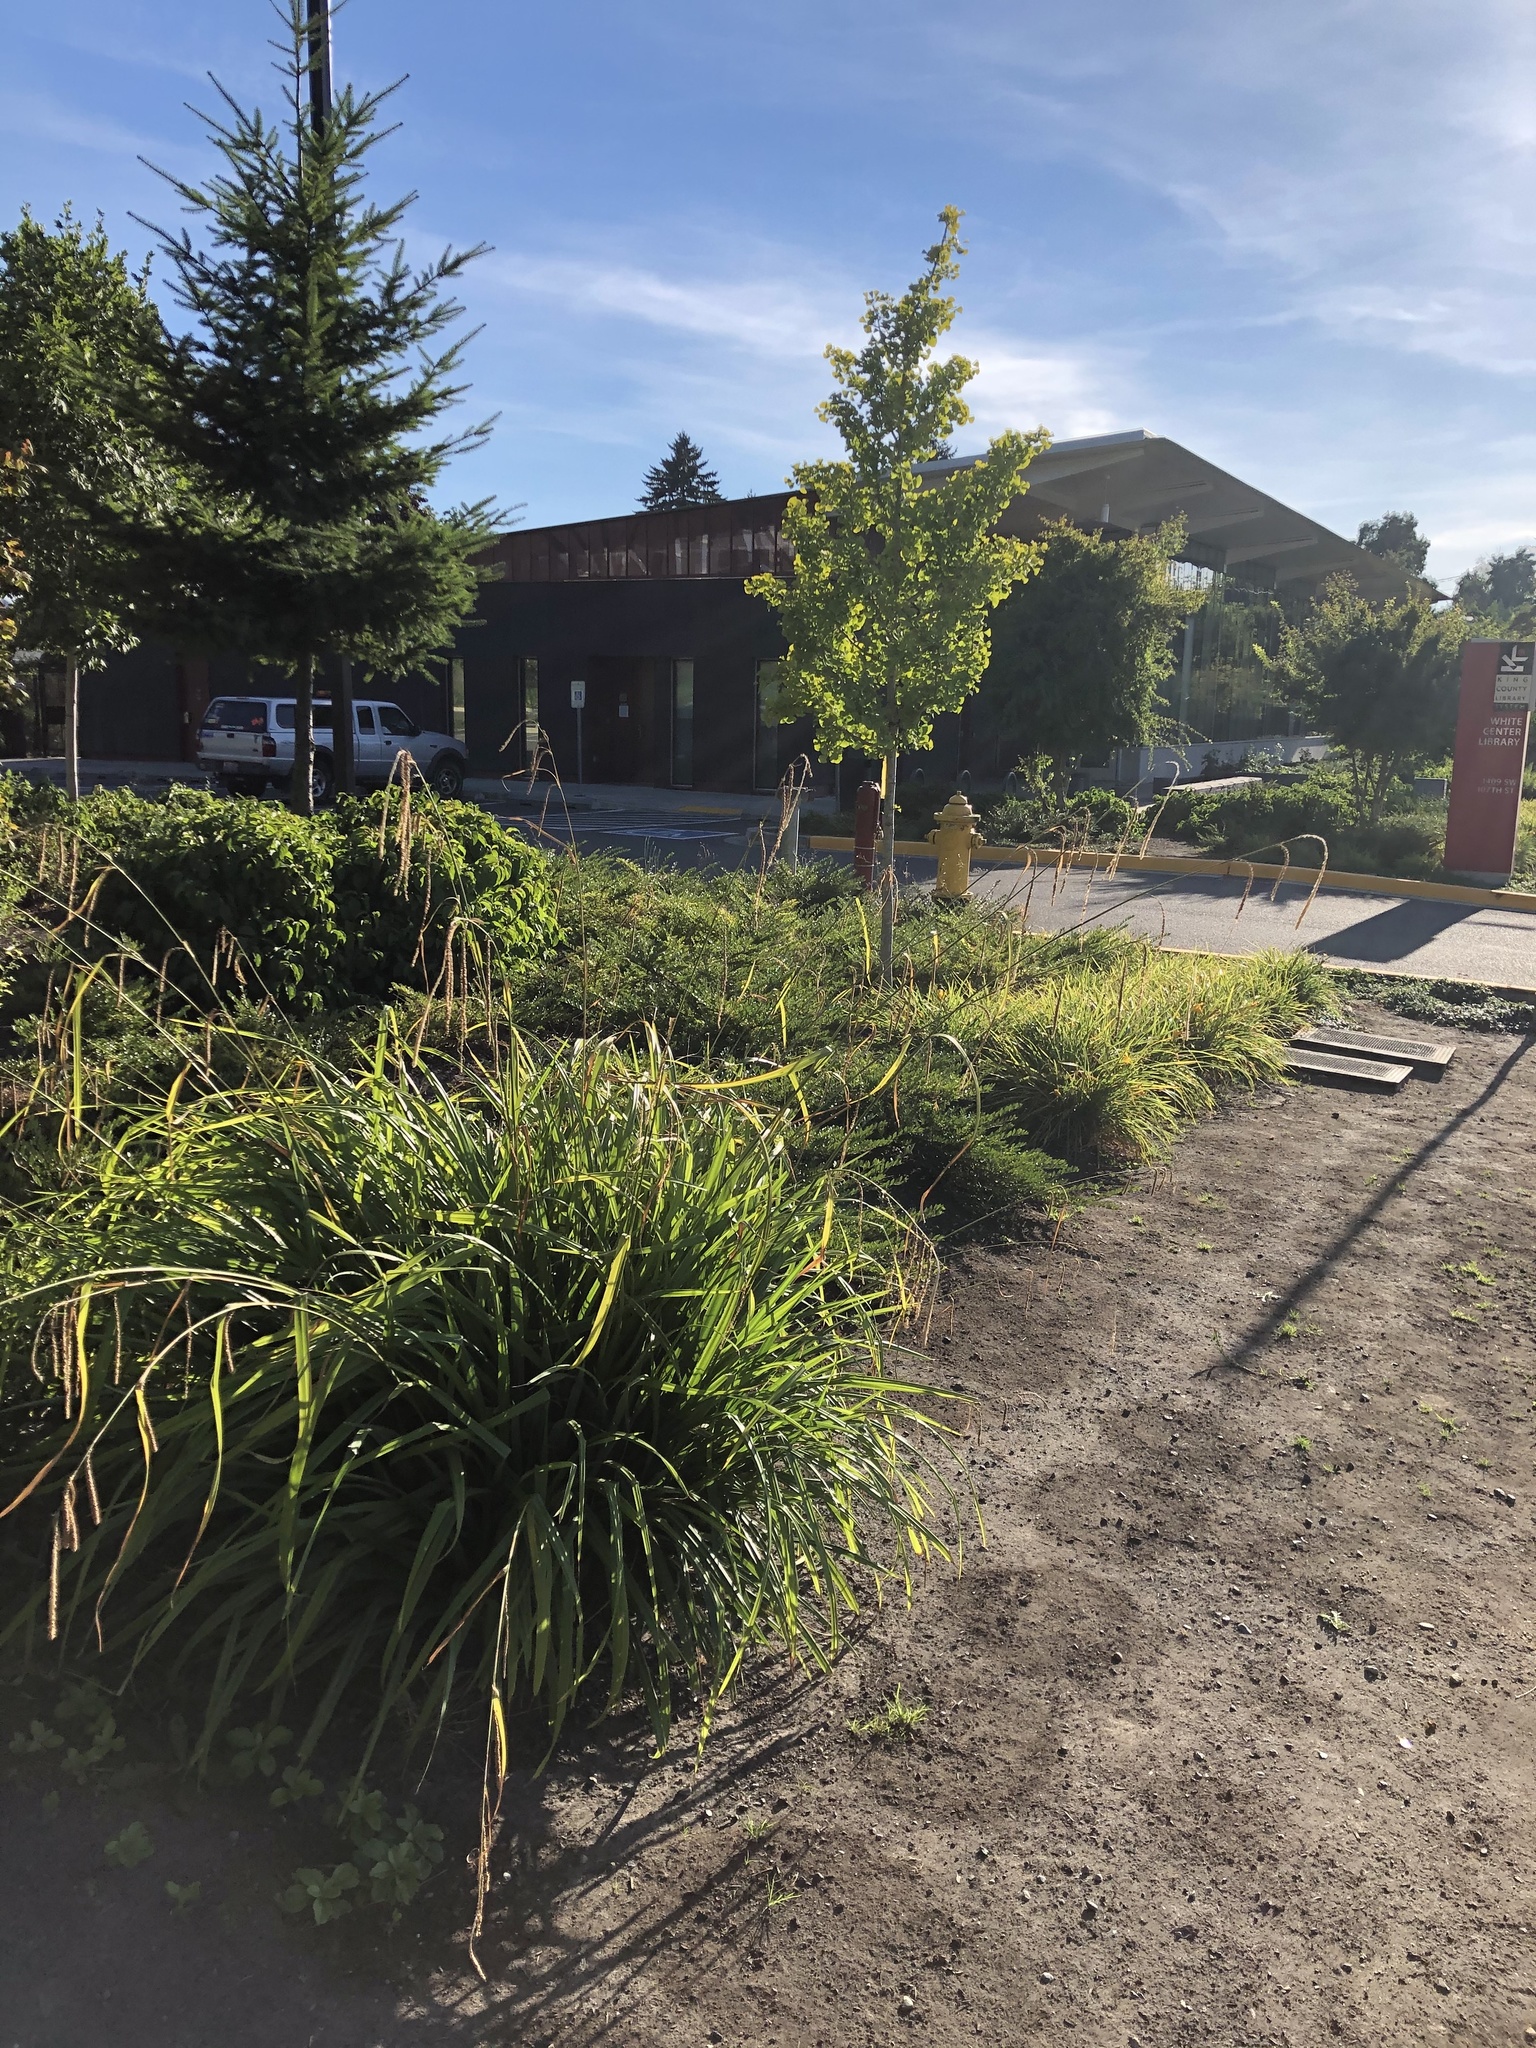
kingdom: Plantae
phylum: Tracheophyta
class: Liliopsida
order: Poales
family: Cyperaceae
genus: Carex
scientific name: Carex pendula
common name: Pendulous sedge
